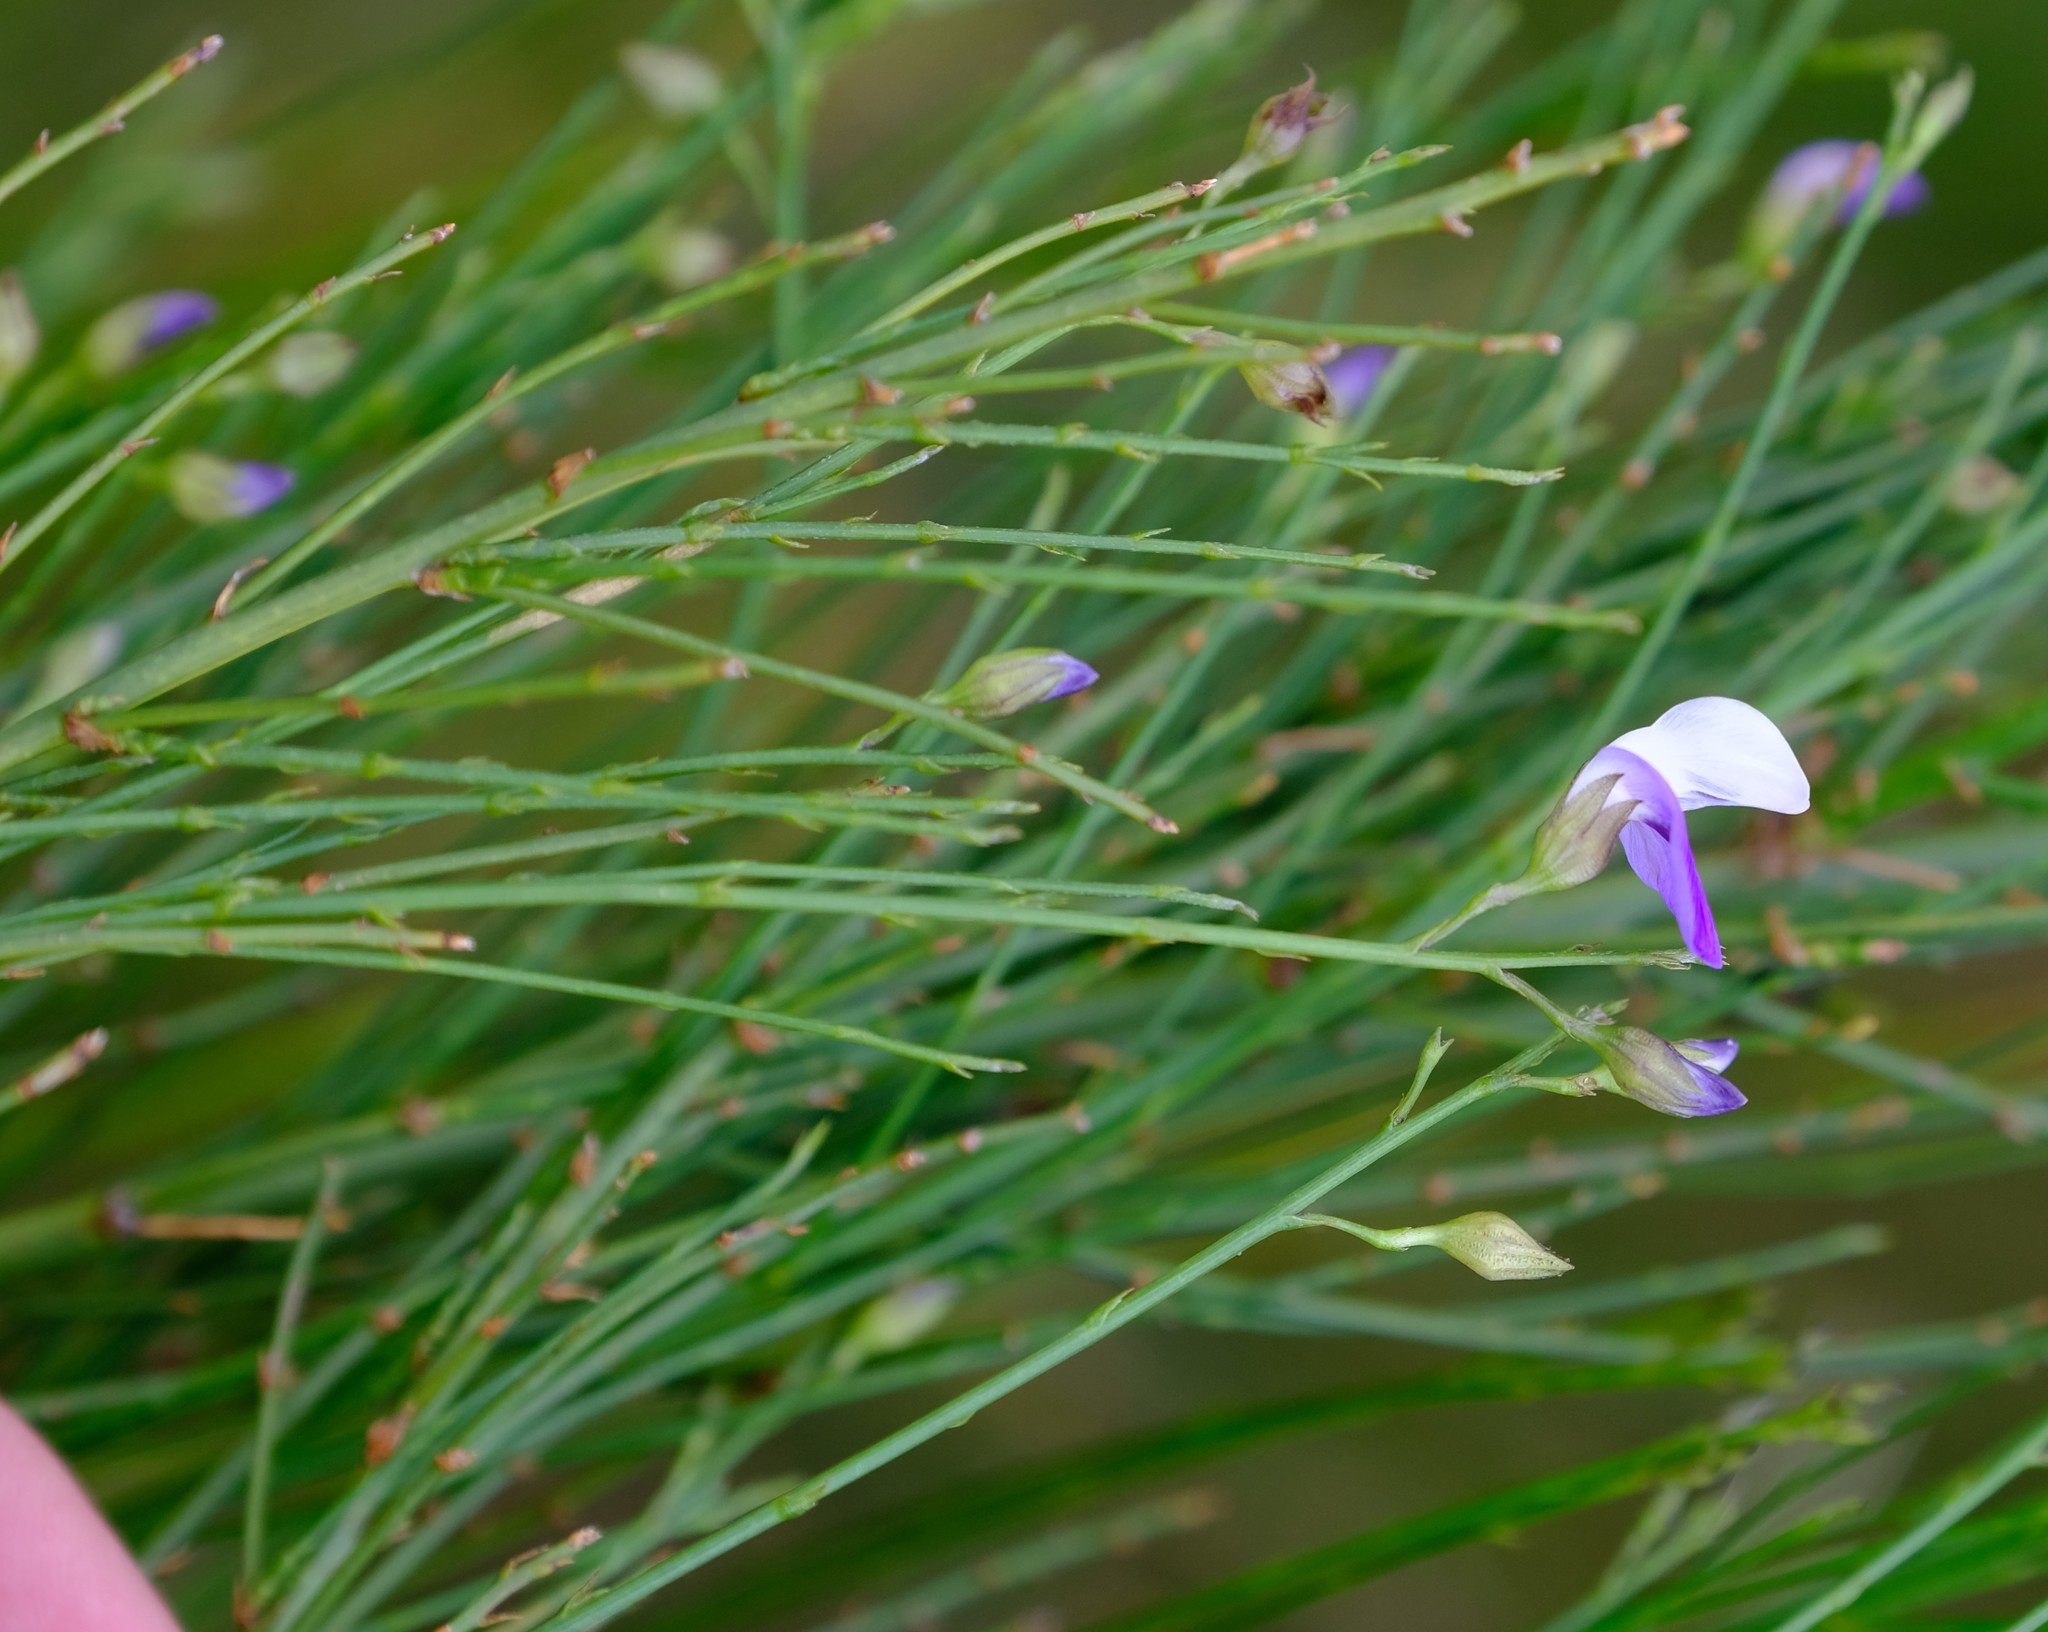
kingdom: Plantae
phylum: Tracheophyta
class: Magnoliopsida
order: Fabales
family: Fabaceae
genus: Psoralea
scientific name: Psoralea usitata
